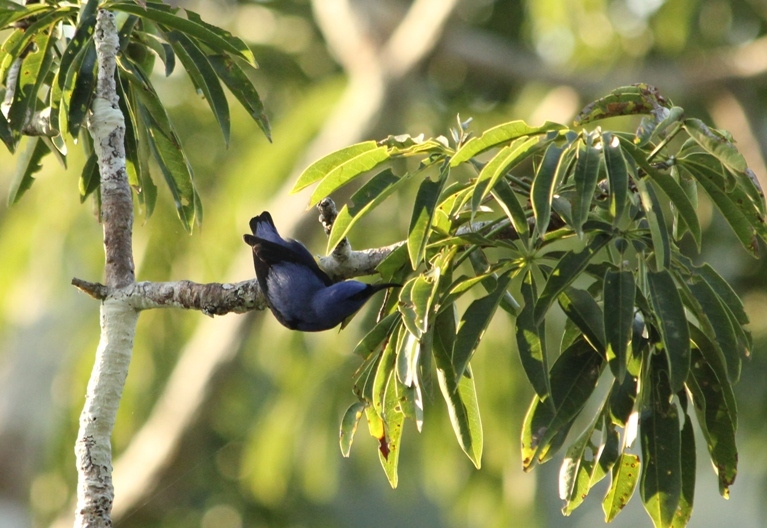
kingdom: Animalia
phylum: Chordata
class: Aves
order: Passeriformes
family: Thraupidae
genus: Cyanerpes
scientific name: Cyanerpes caeruleus
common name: Purple honeycreeper
